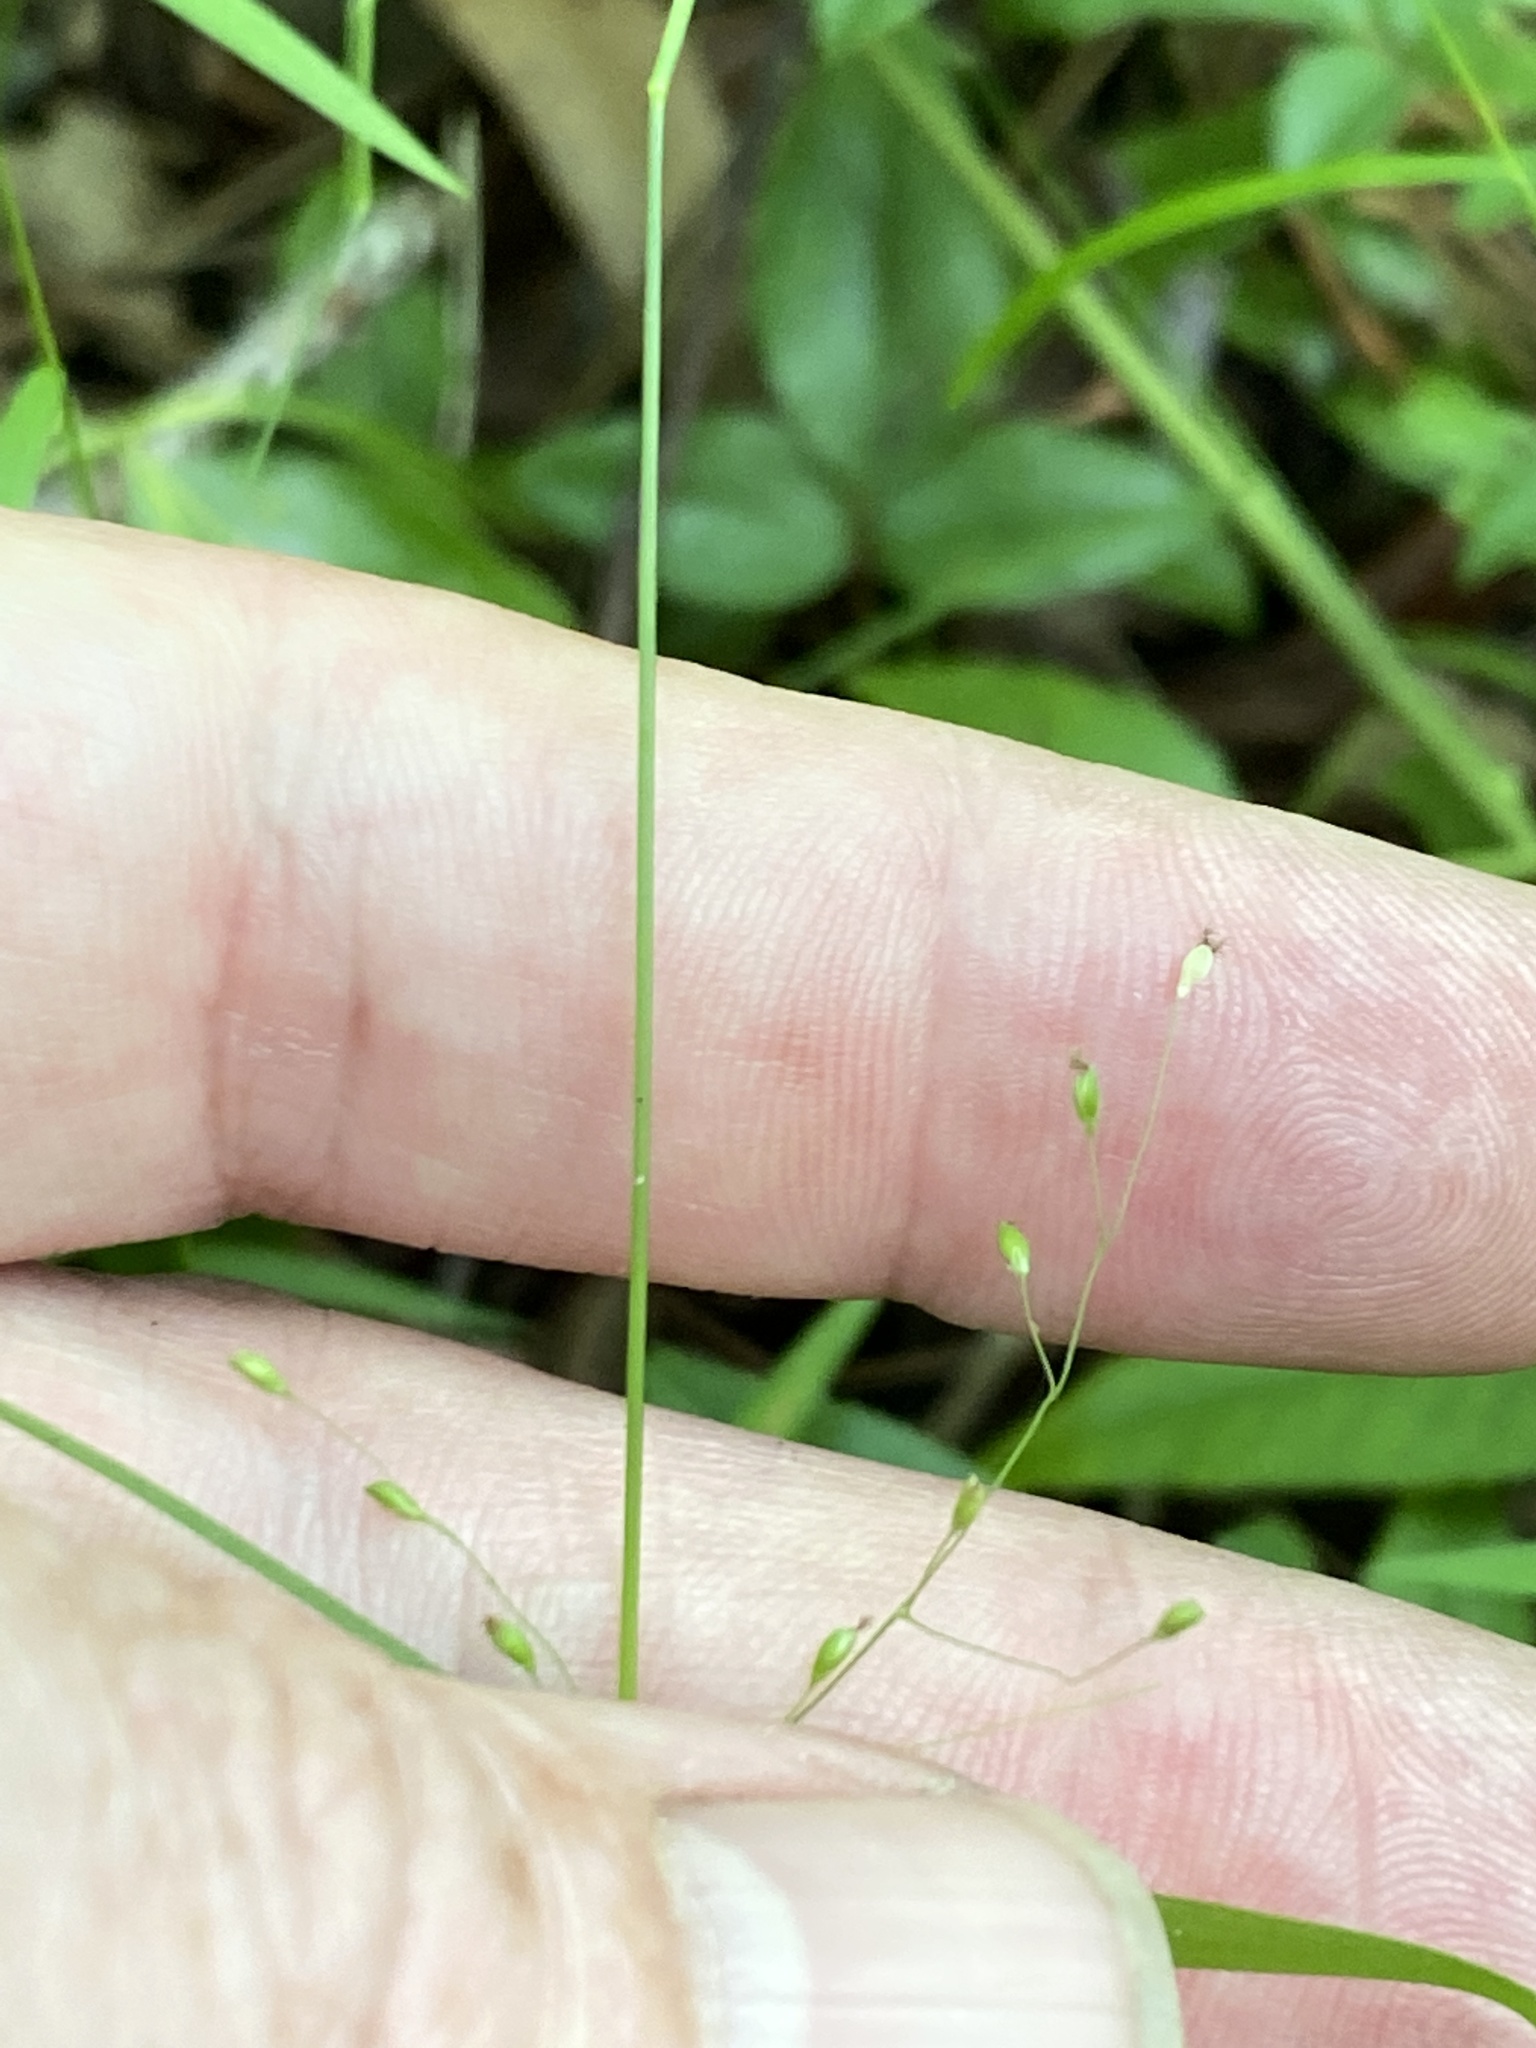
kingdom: Plantae
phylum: Tracheophyta
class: Liliopsida
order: Poales
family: Poaceae
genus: Dichanthelium
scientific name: Dichanthelium lucidum
